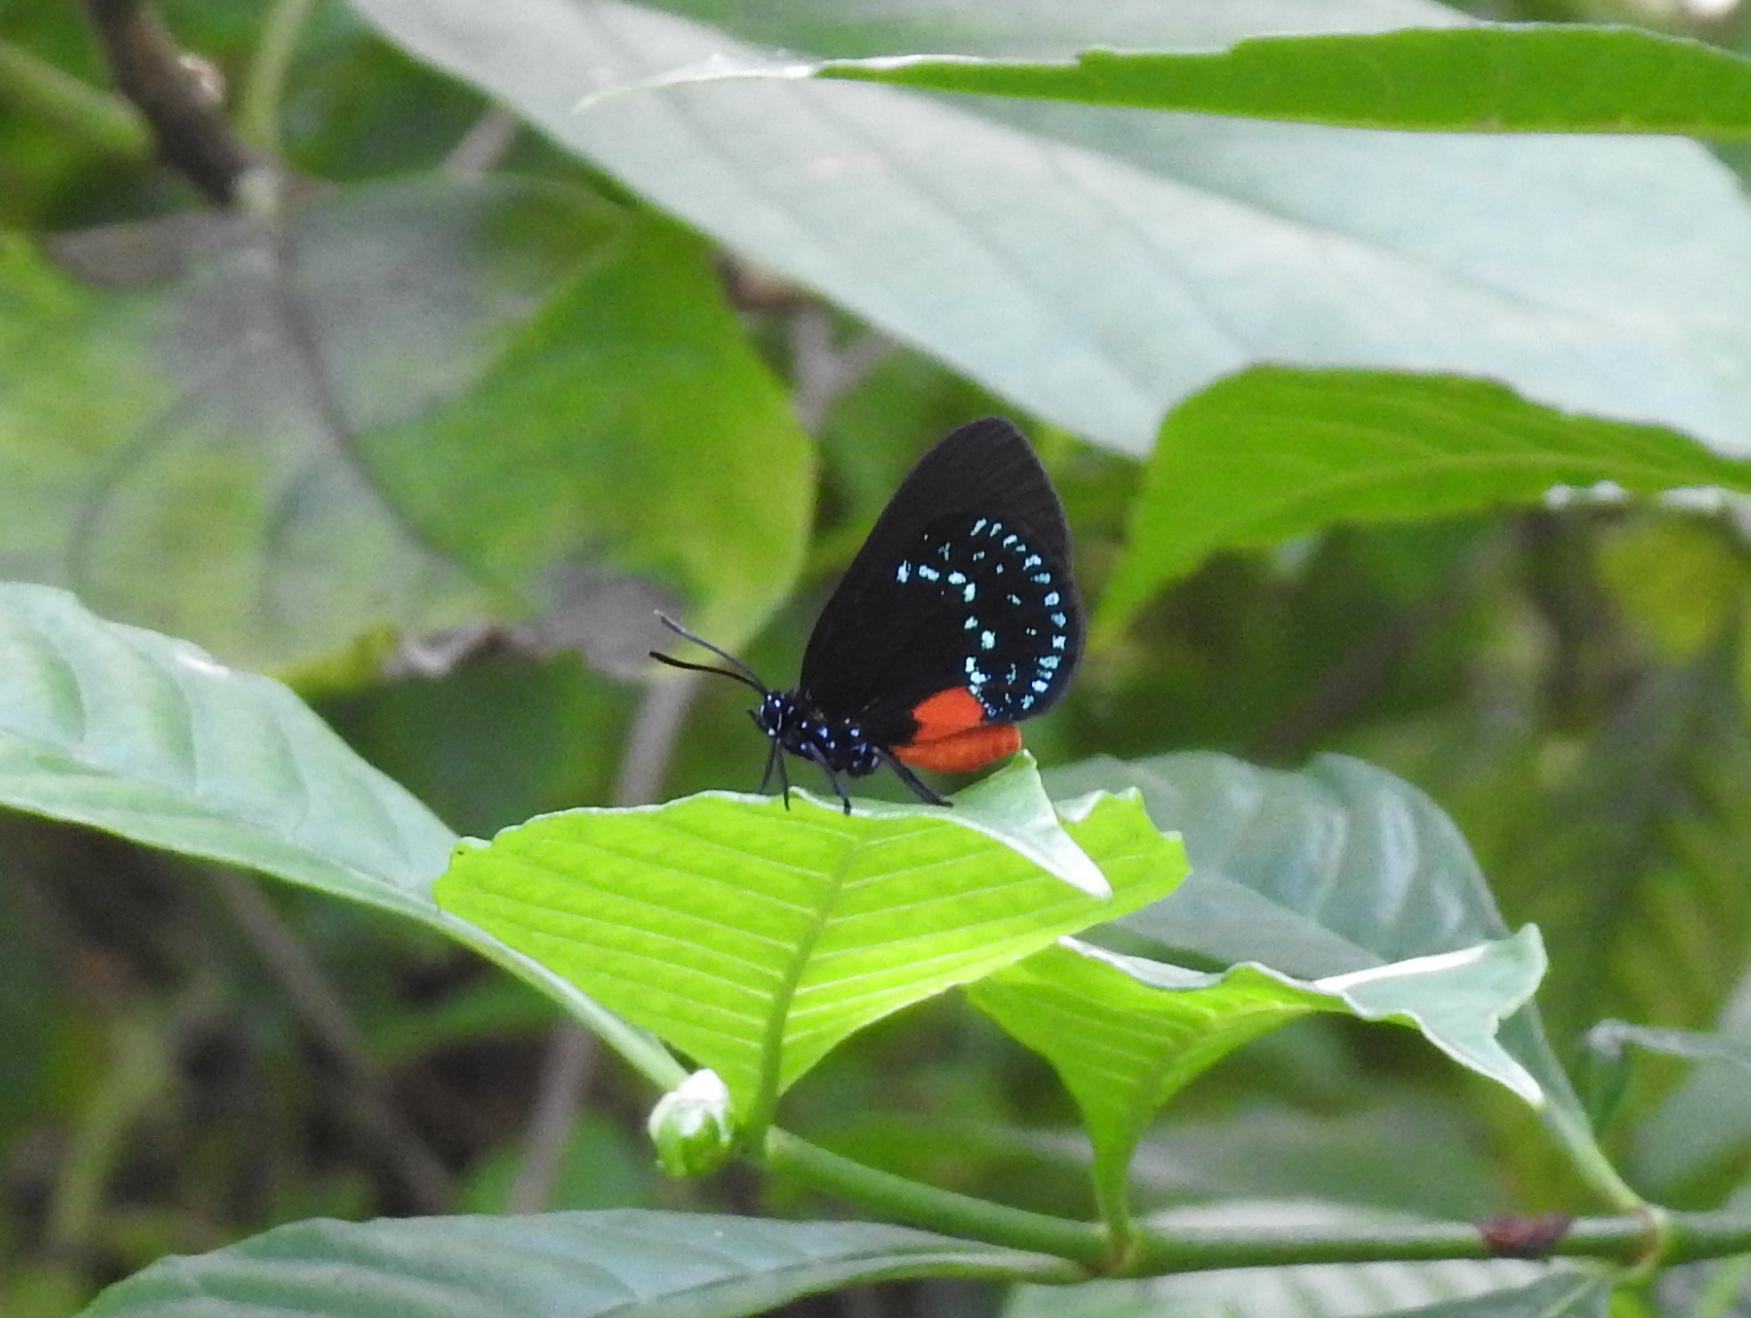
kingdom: Animalia
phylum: Arthropoda
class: Insecta
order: Lepidoptera
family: Lycaenidae
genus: Eumaeus
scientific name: Eumaeus atala
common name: Atala
